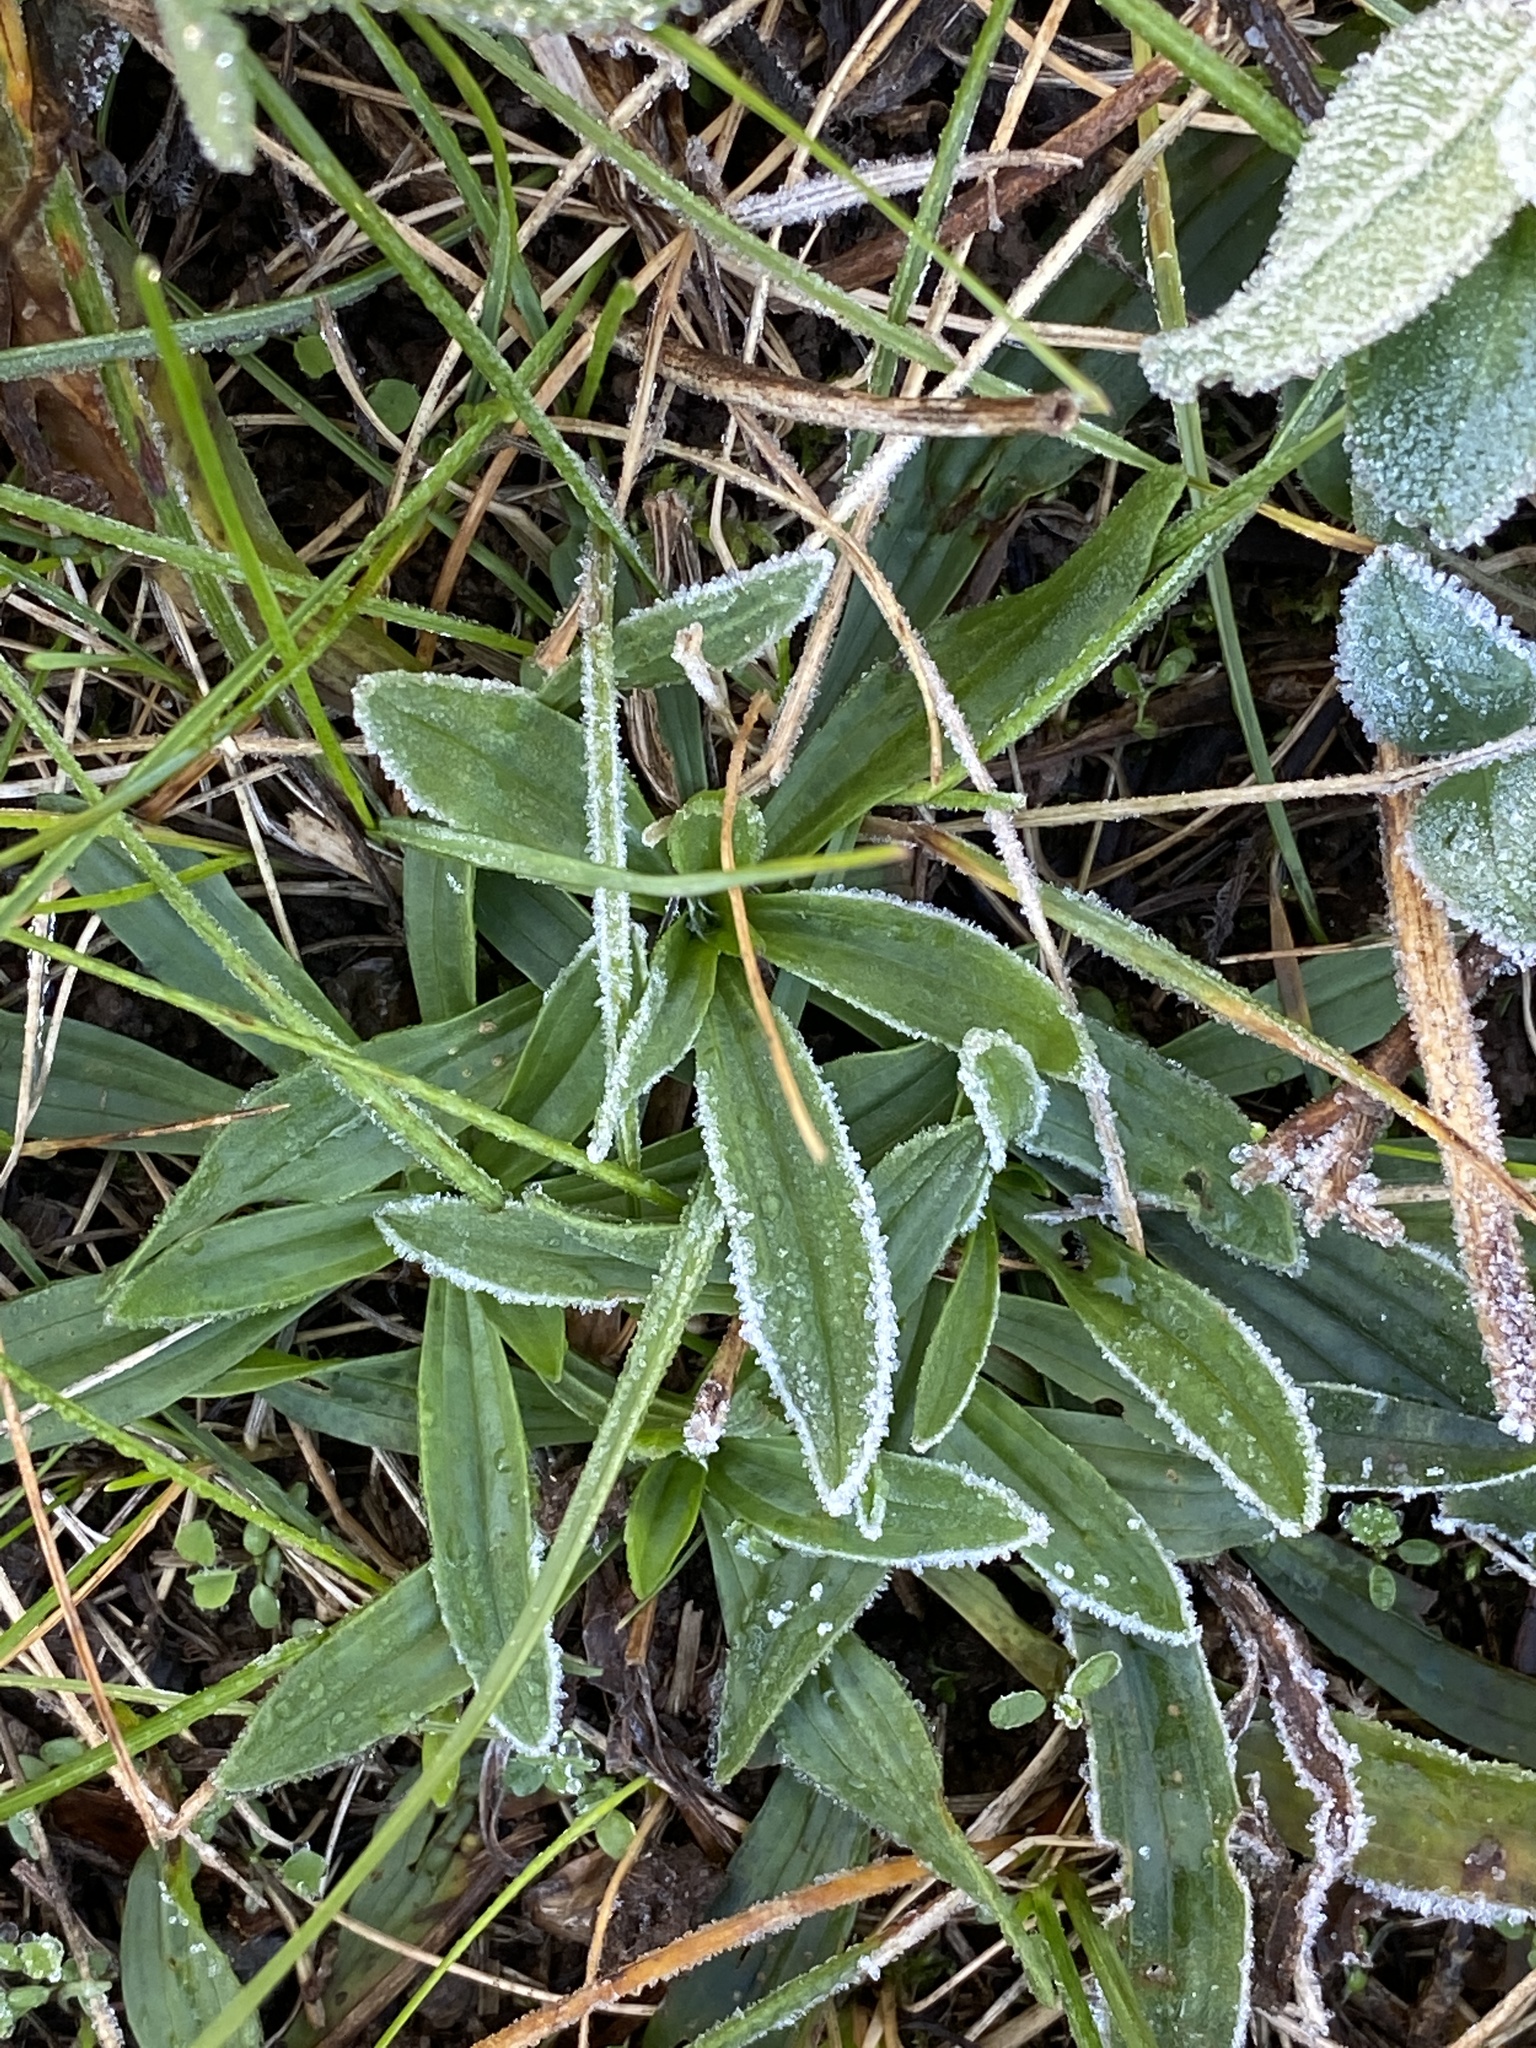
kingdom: Plantae
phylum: Tracheophyta
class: Magnoliopsida
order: Lamiales
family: Plantaginaceae
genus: Plantago
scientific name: Plantago lanceolata
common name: Ribwort plantain
